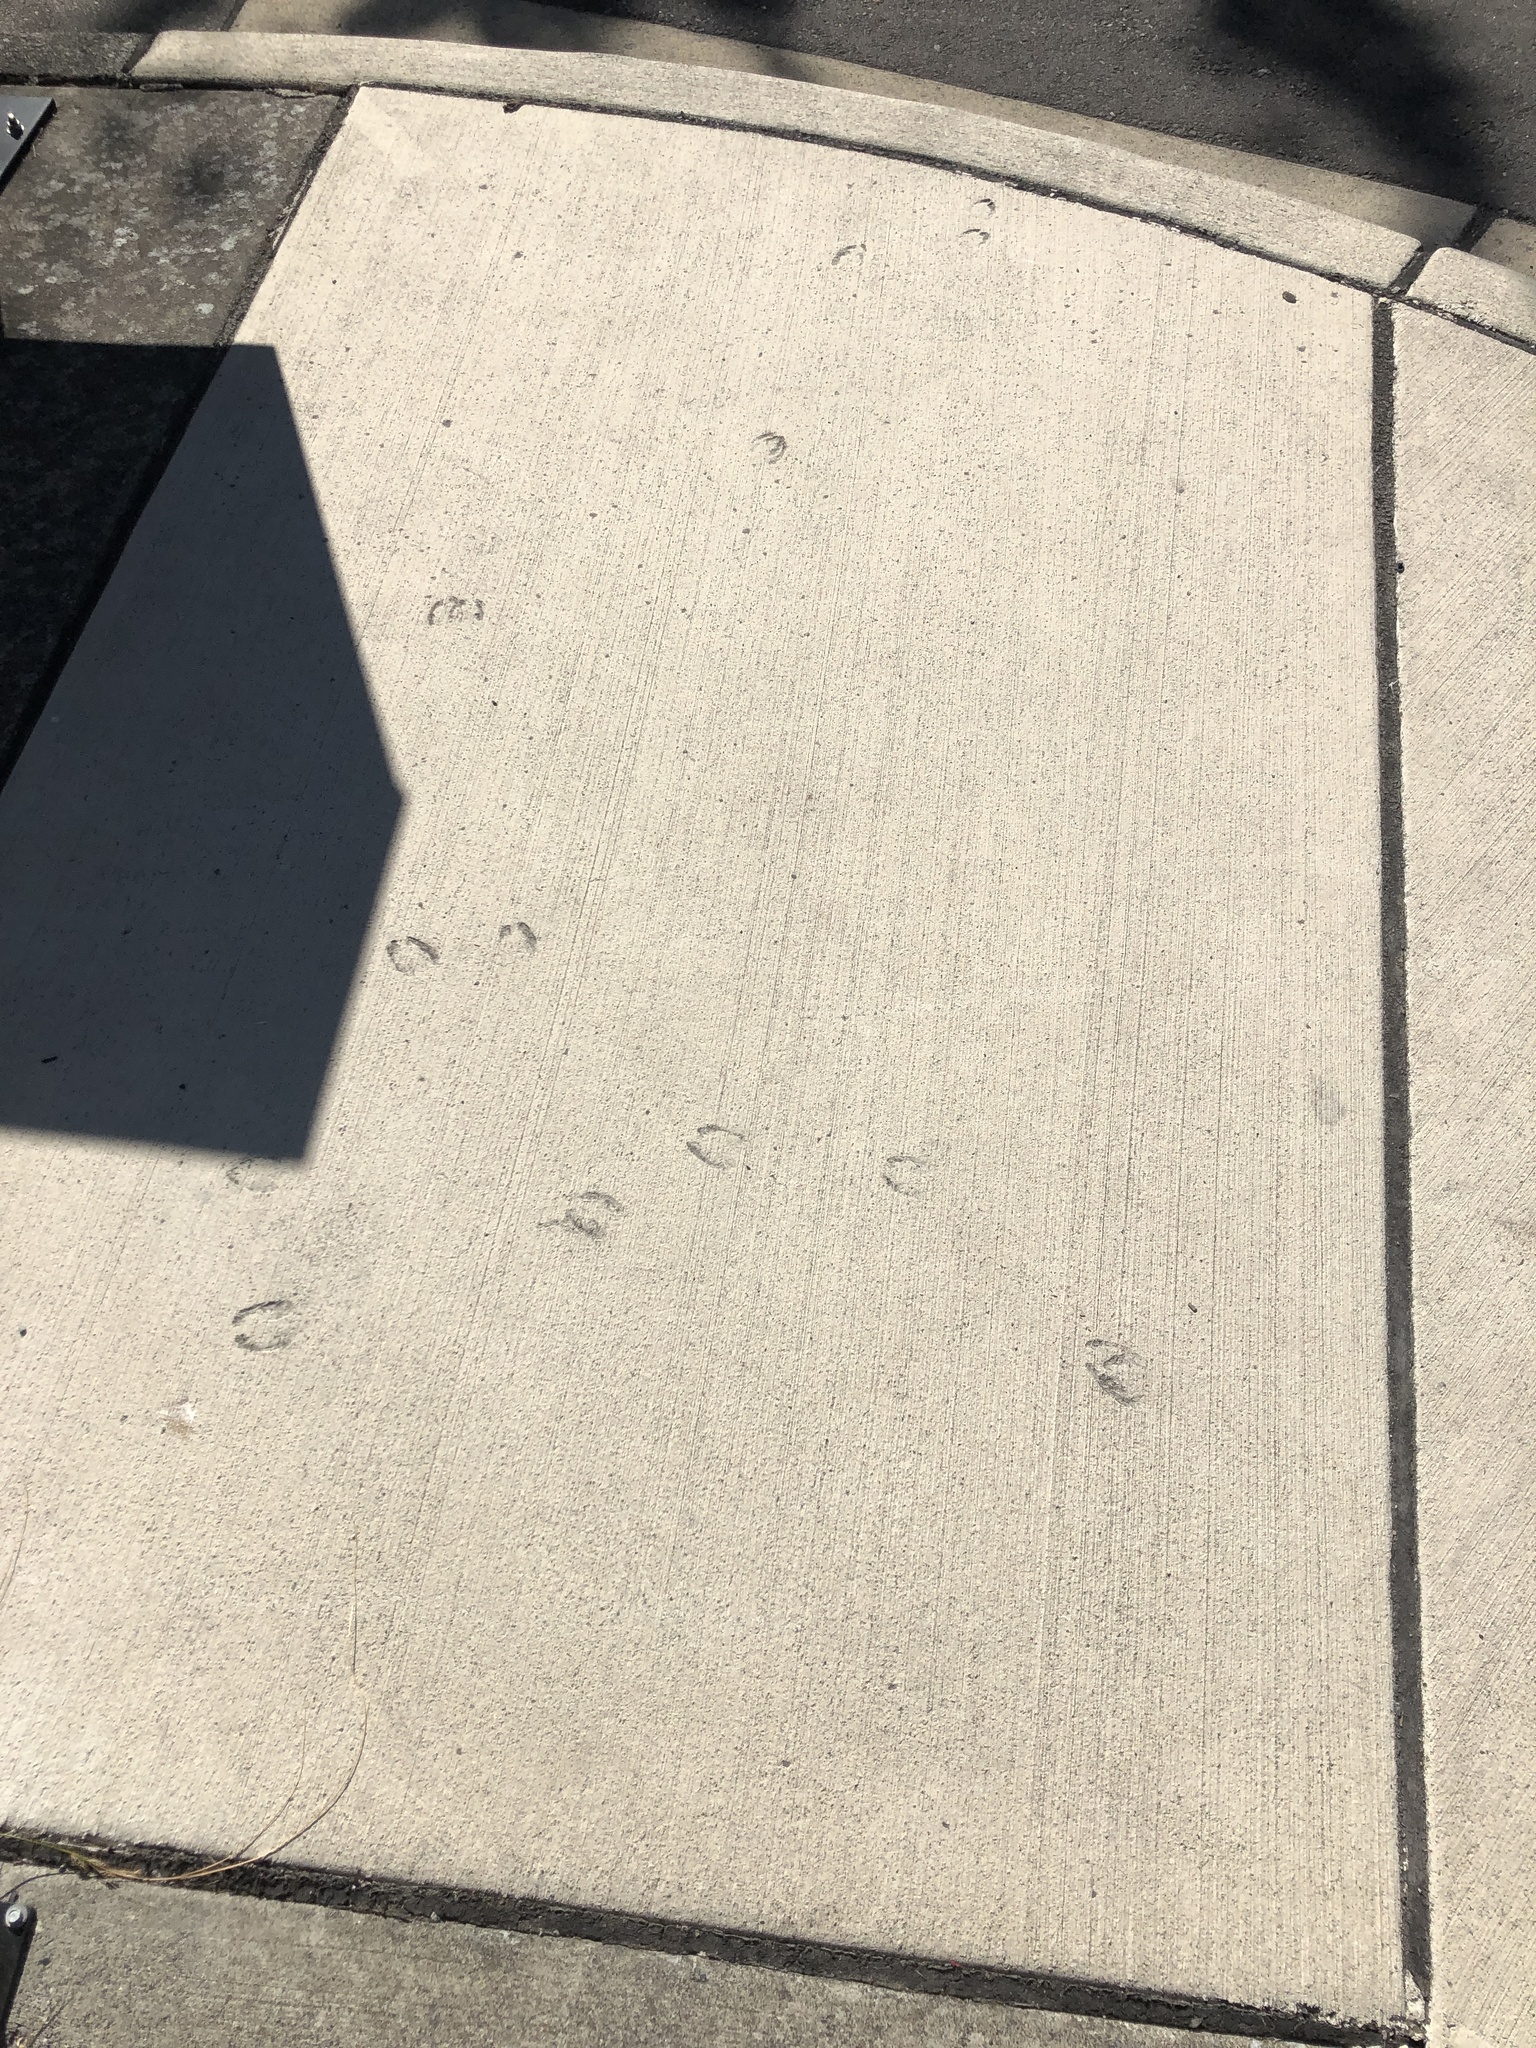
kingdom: Animalia
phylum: Chordata
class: Mammalia
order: Artiodactyla
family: Cervidae
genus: Odocoileus
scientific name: Odocoileus hemionus
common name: Mule deer
